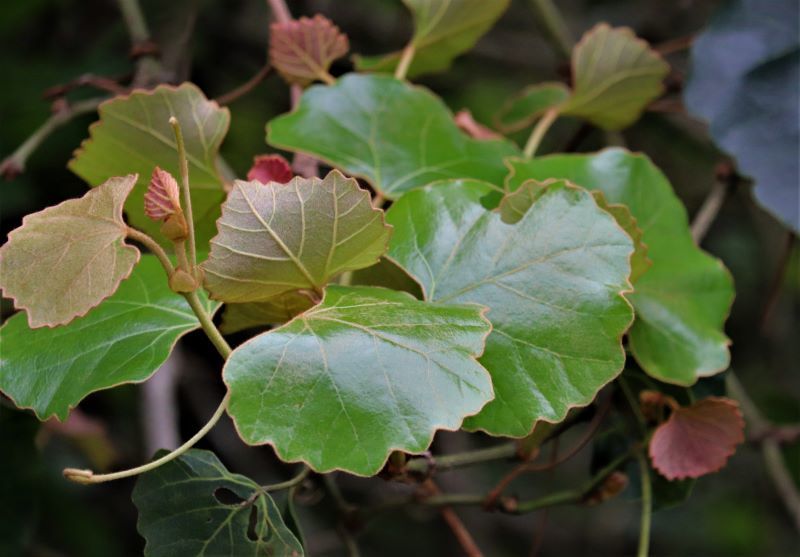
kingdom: Plantae
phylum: Tracheophyta
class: Magnoliopsida
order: Vitales
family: Vitaceae
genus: Rhoicissus
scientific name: Rhoicissus tomentosa
